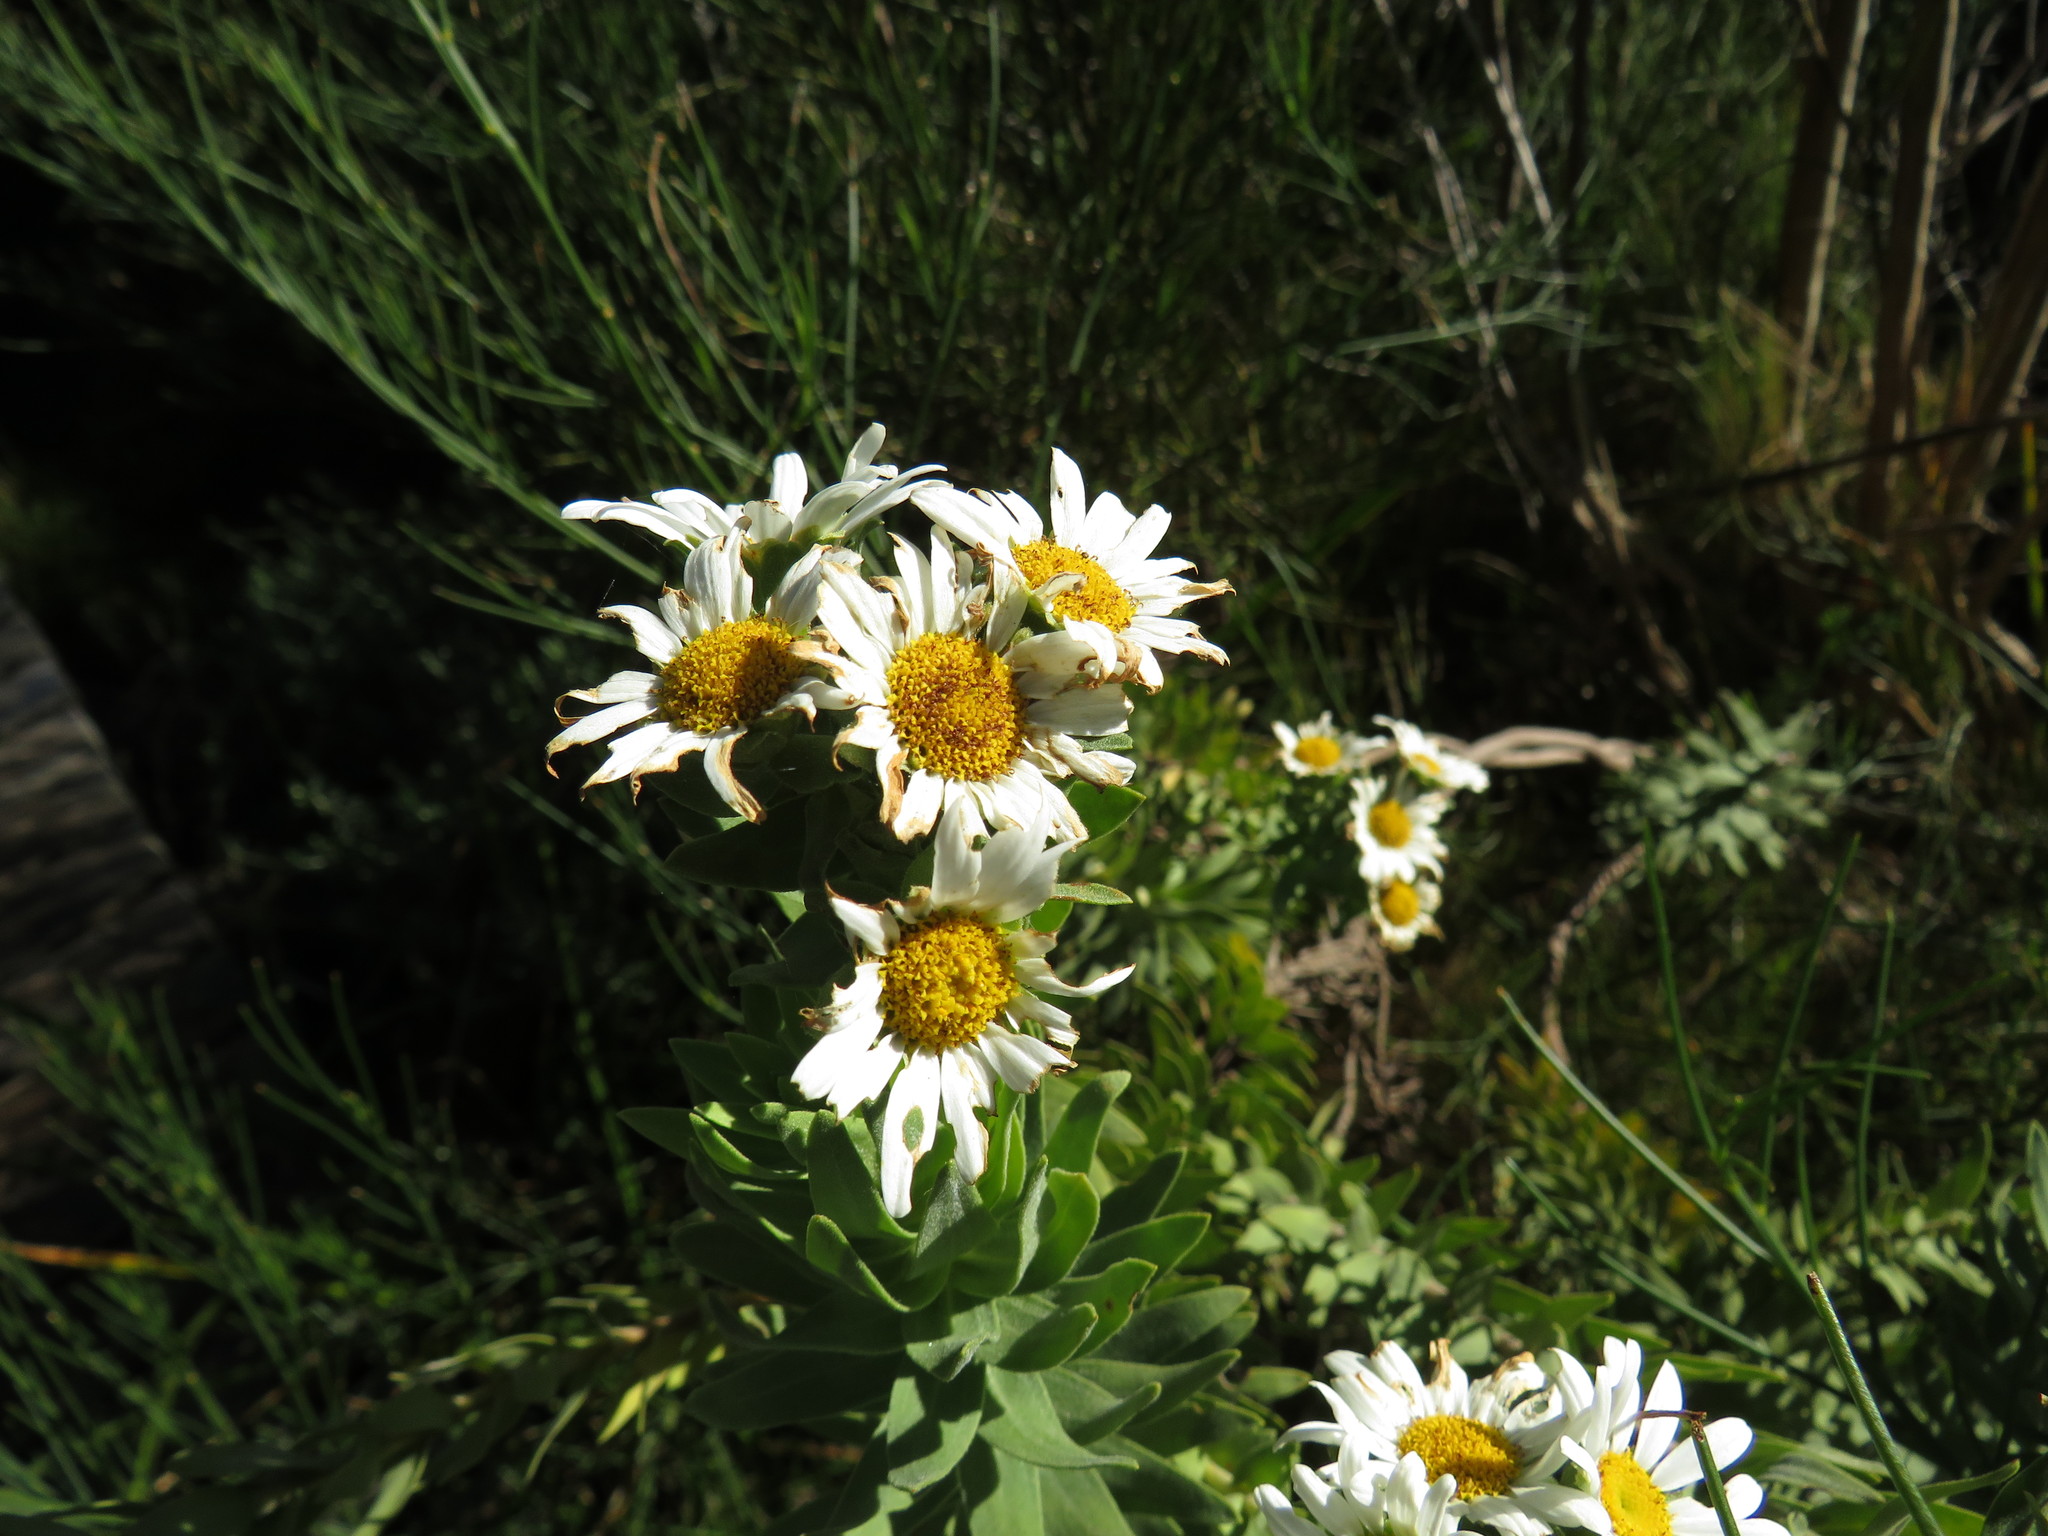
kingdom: Plantae
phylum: Tracheophyta
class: Magnoliopsida
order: Asterales
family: Asteraceae
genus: Osmitopsis
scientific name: Osmitopsis asteriscoides
